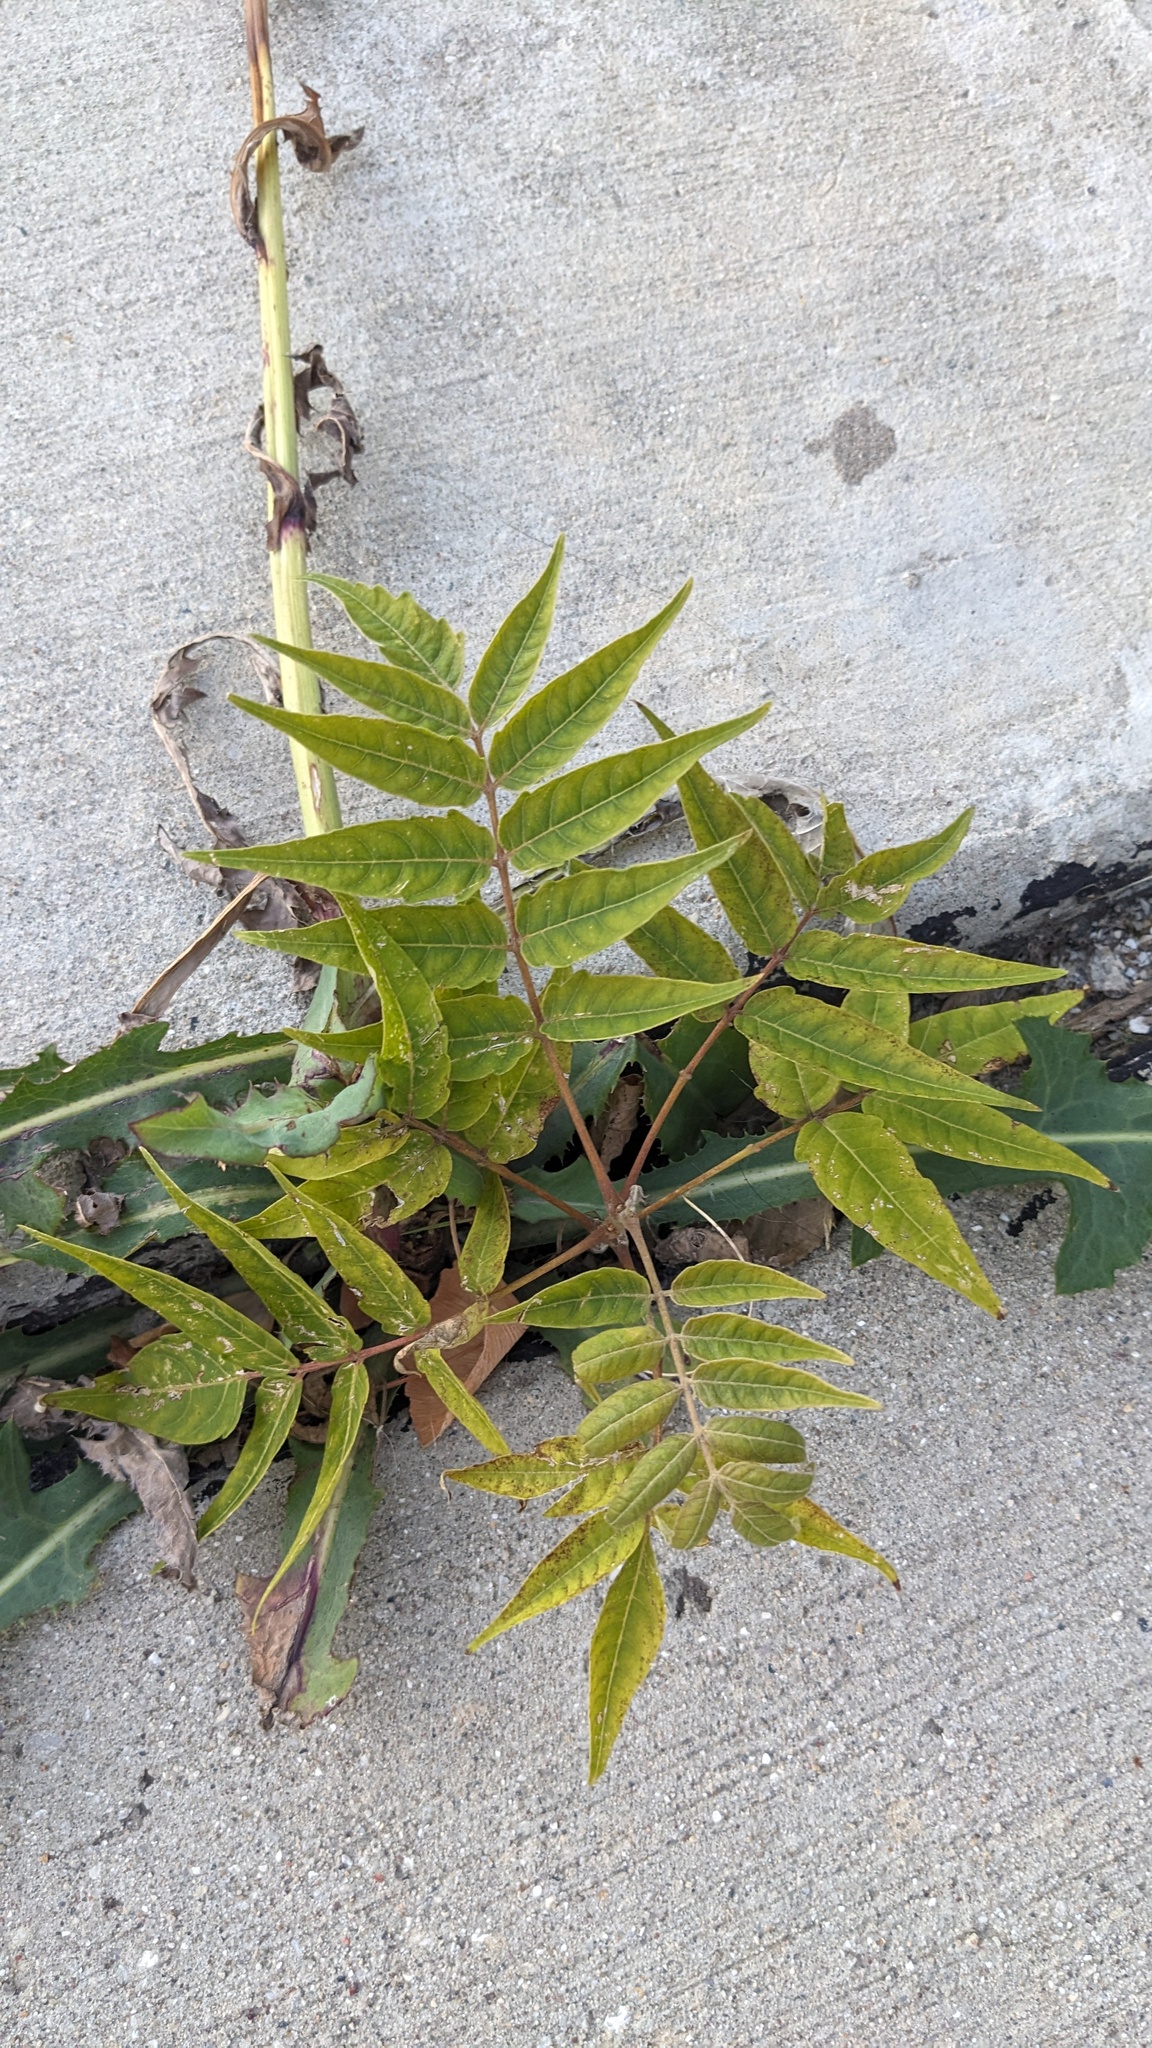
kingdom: Plantae
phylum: Tracheophyta
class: Magnoliopsida
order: Sapindales
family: Simaroubaceae
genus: Ailanthus
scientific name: Ailanthus altissima
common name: Tree-of-heaven
